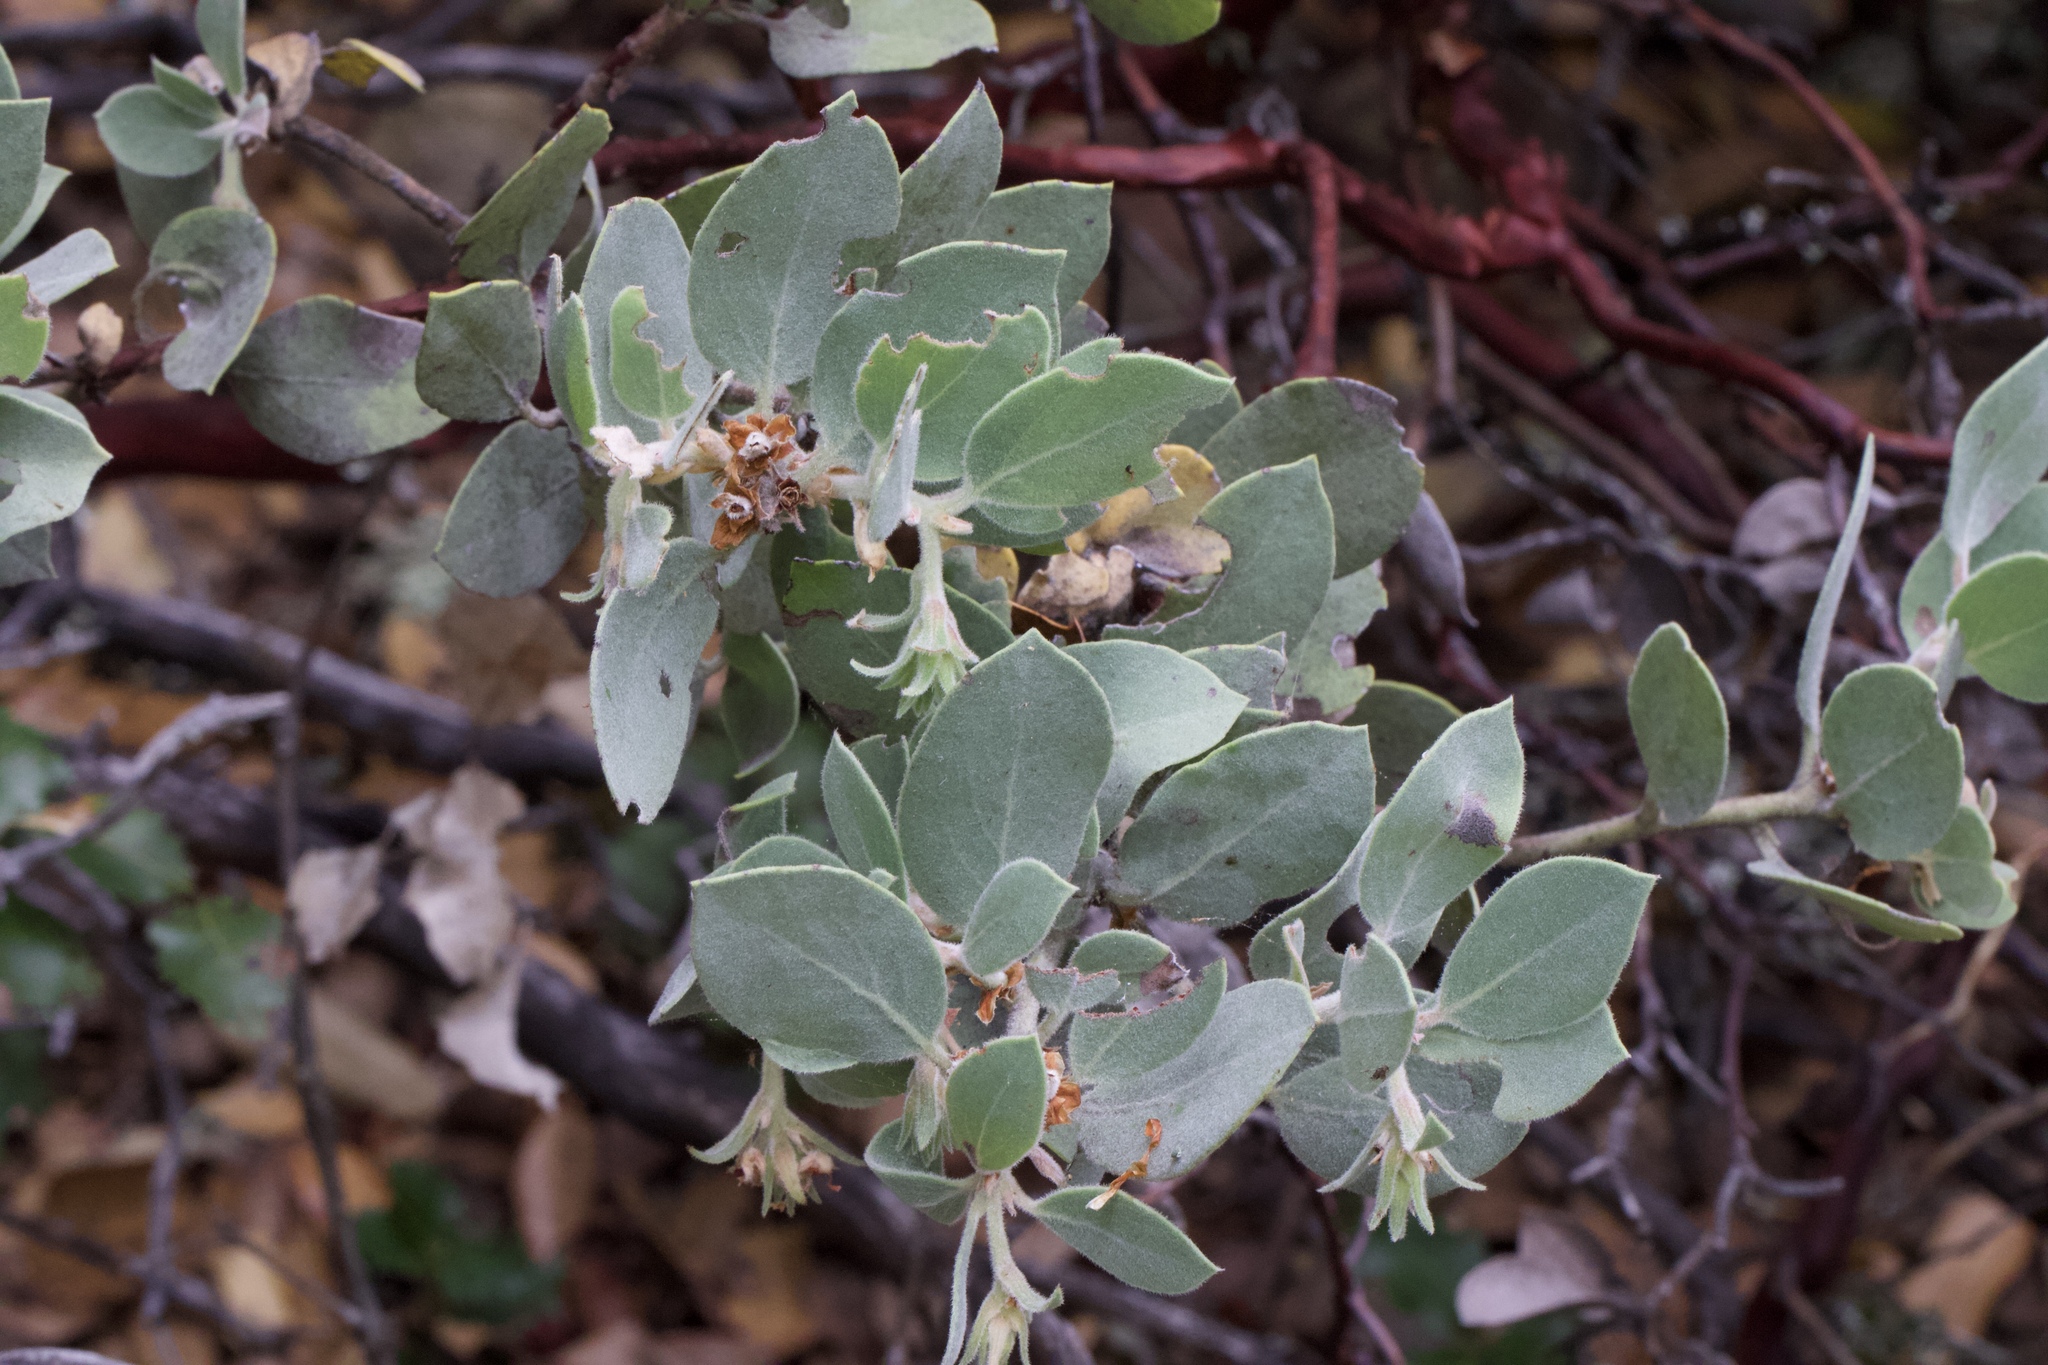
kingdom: Plantae
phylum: Tracheophyta
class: Magnoliopsida
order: Ericales
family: Ericaceae
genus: Arctostaphylos
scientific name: Arctostaphylos canescens
